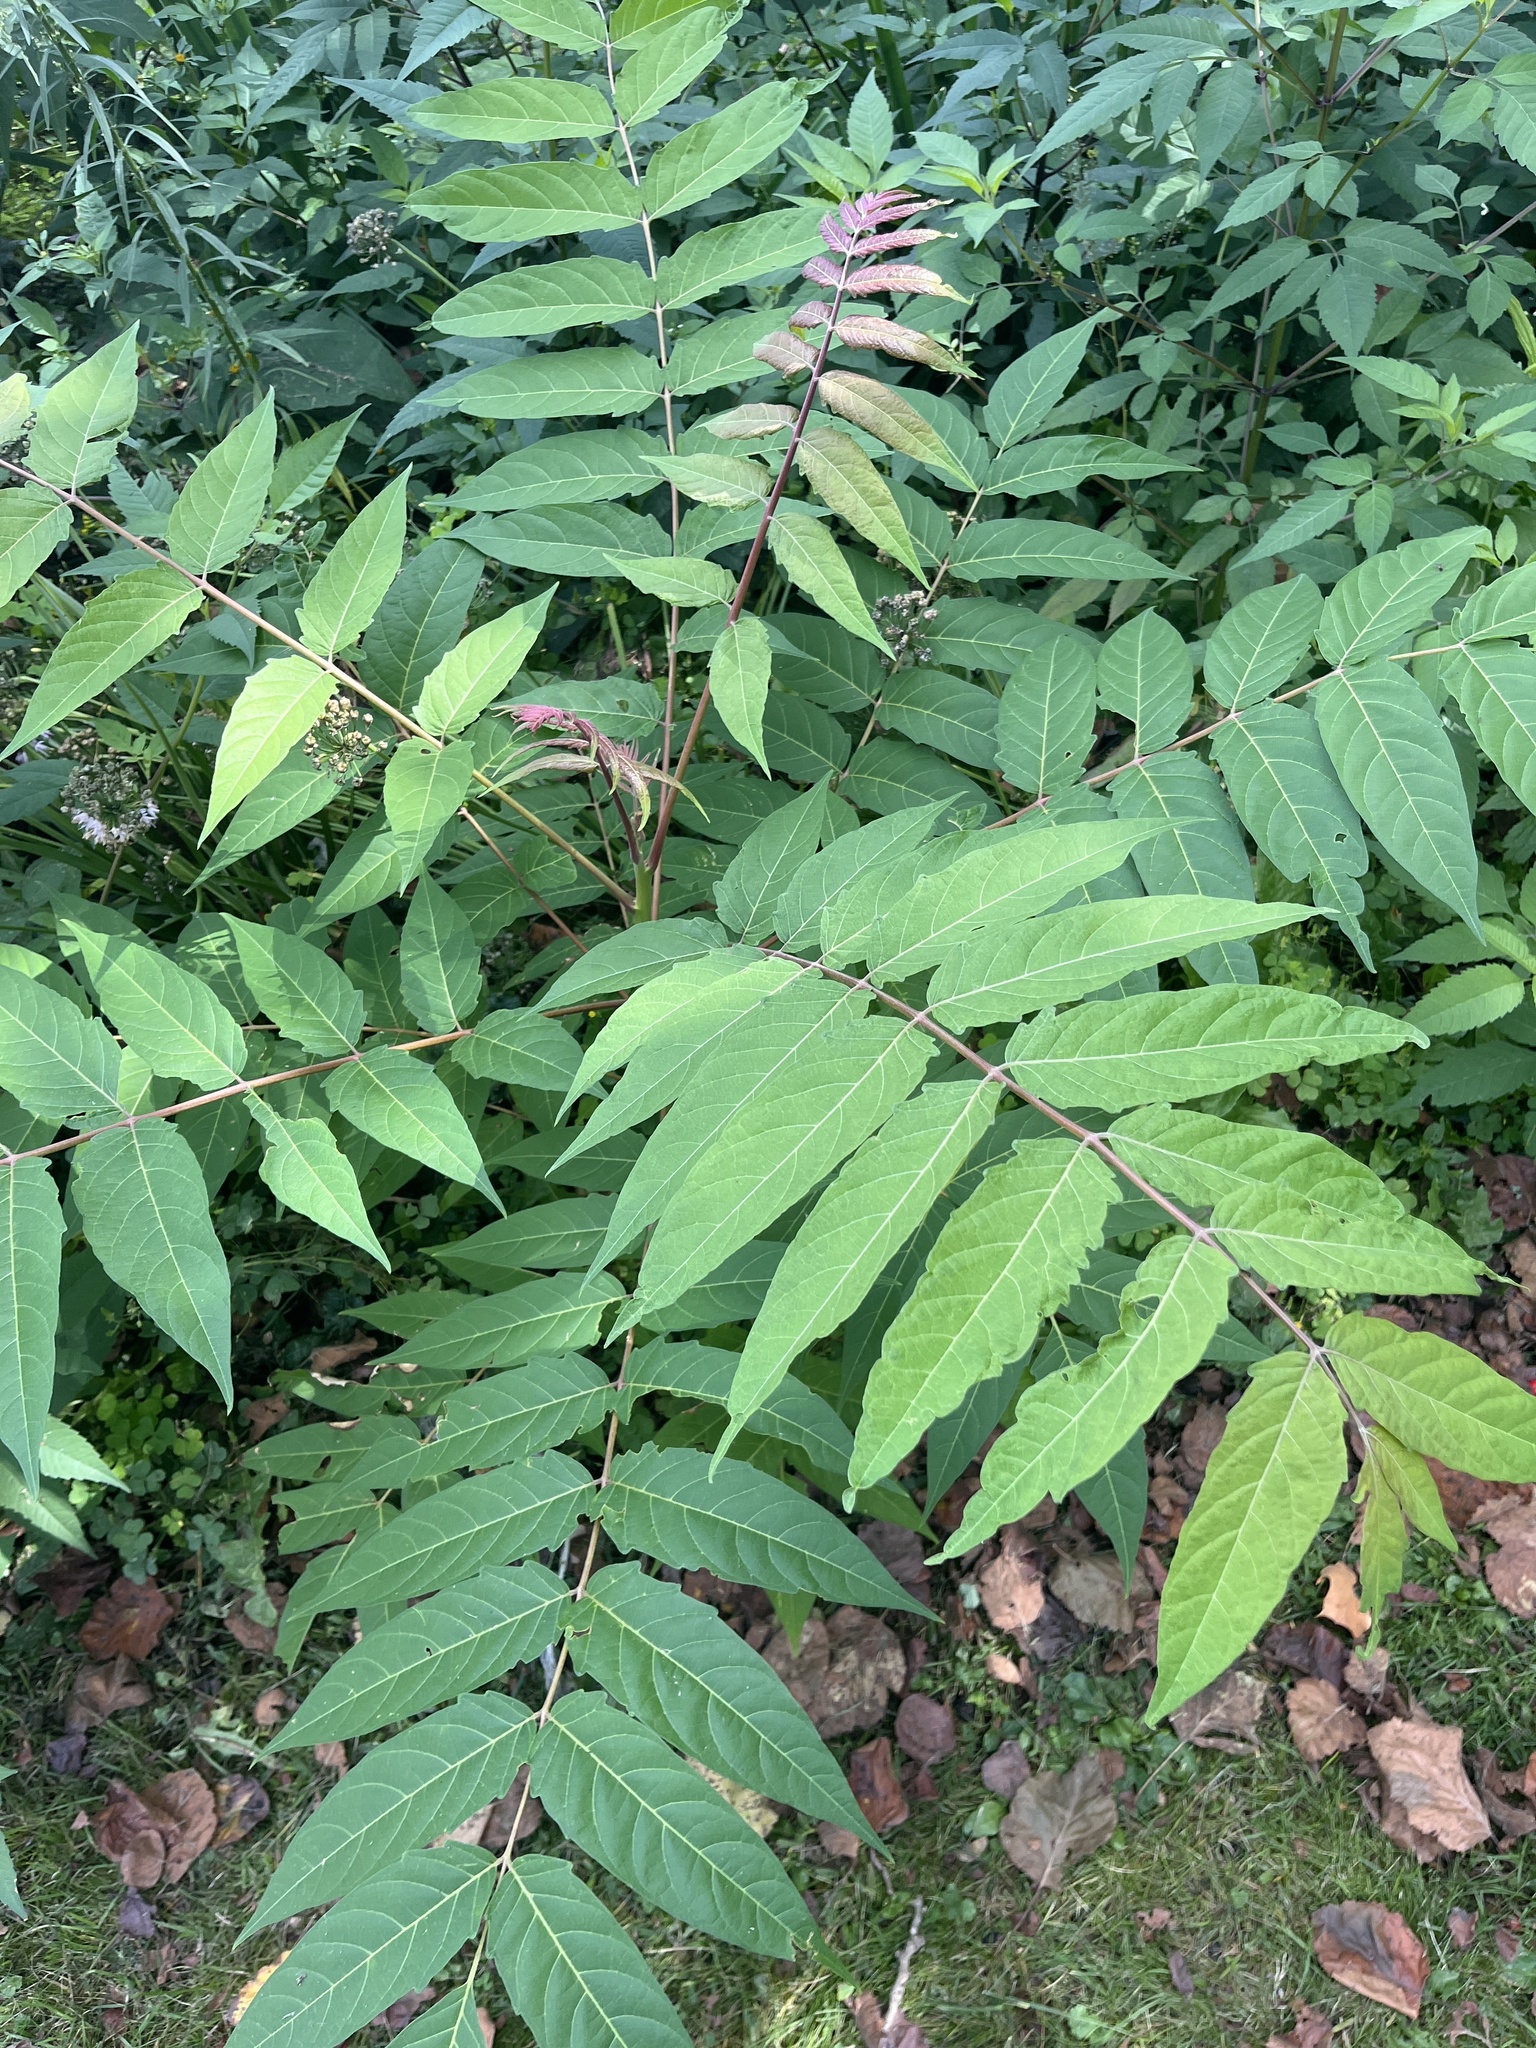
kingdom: Plantae
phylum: Tracheophyta
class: Magnoliopsida
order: Sapindales
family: Simaroubaceae
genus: Ailanthus
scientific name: Ailanthus altissima
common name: Tree-of-heaven
